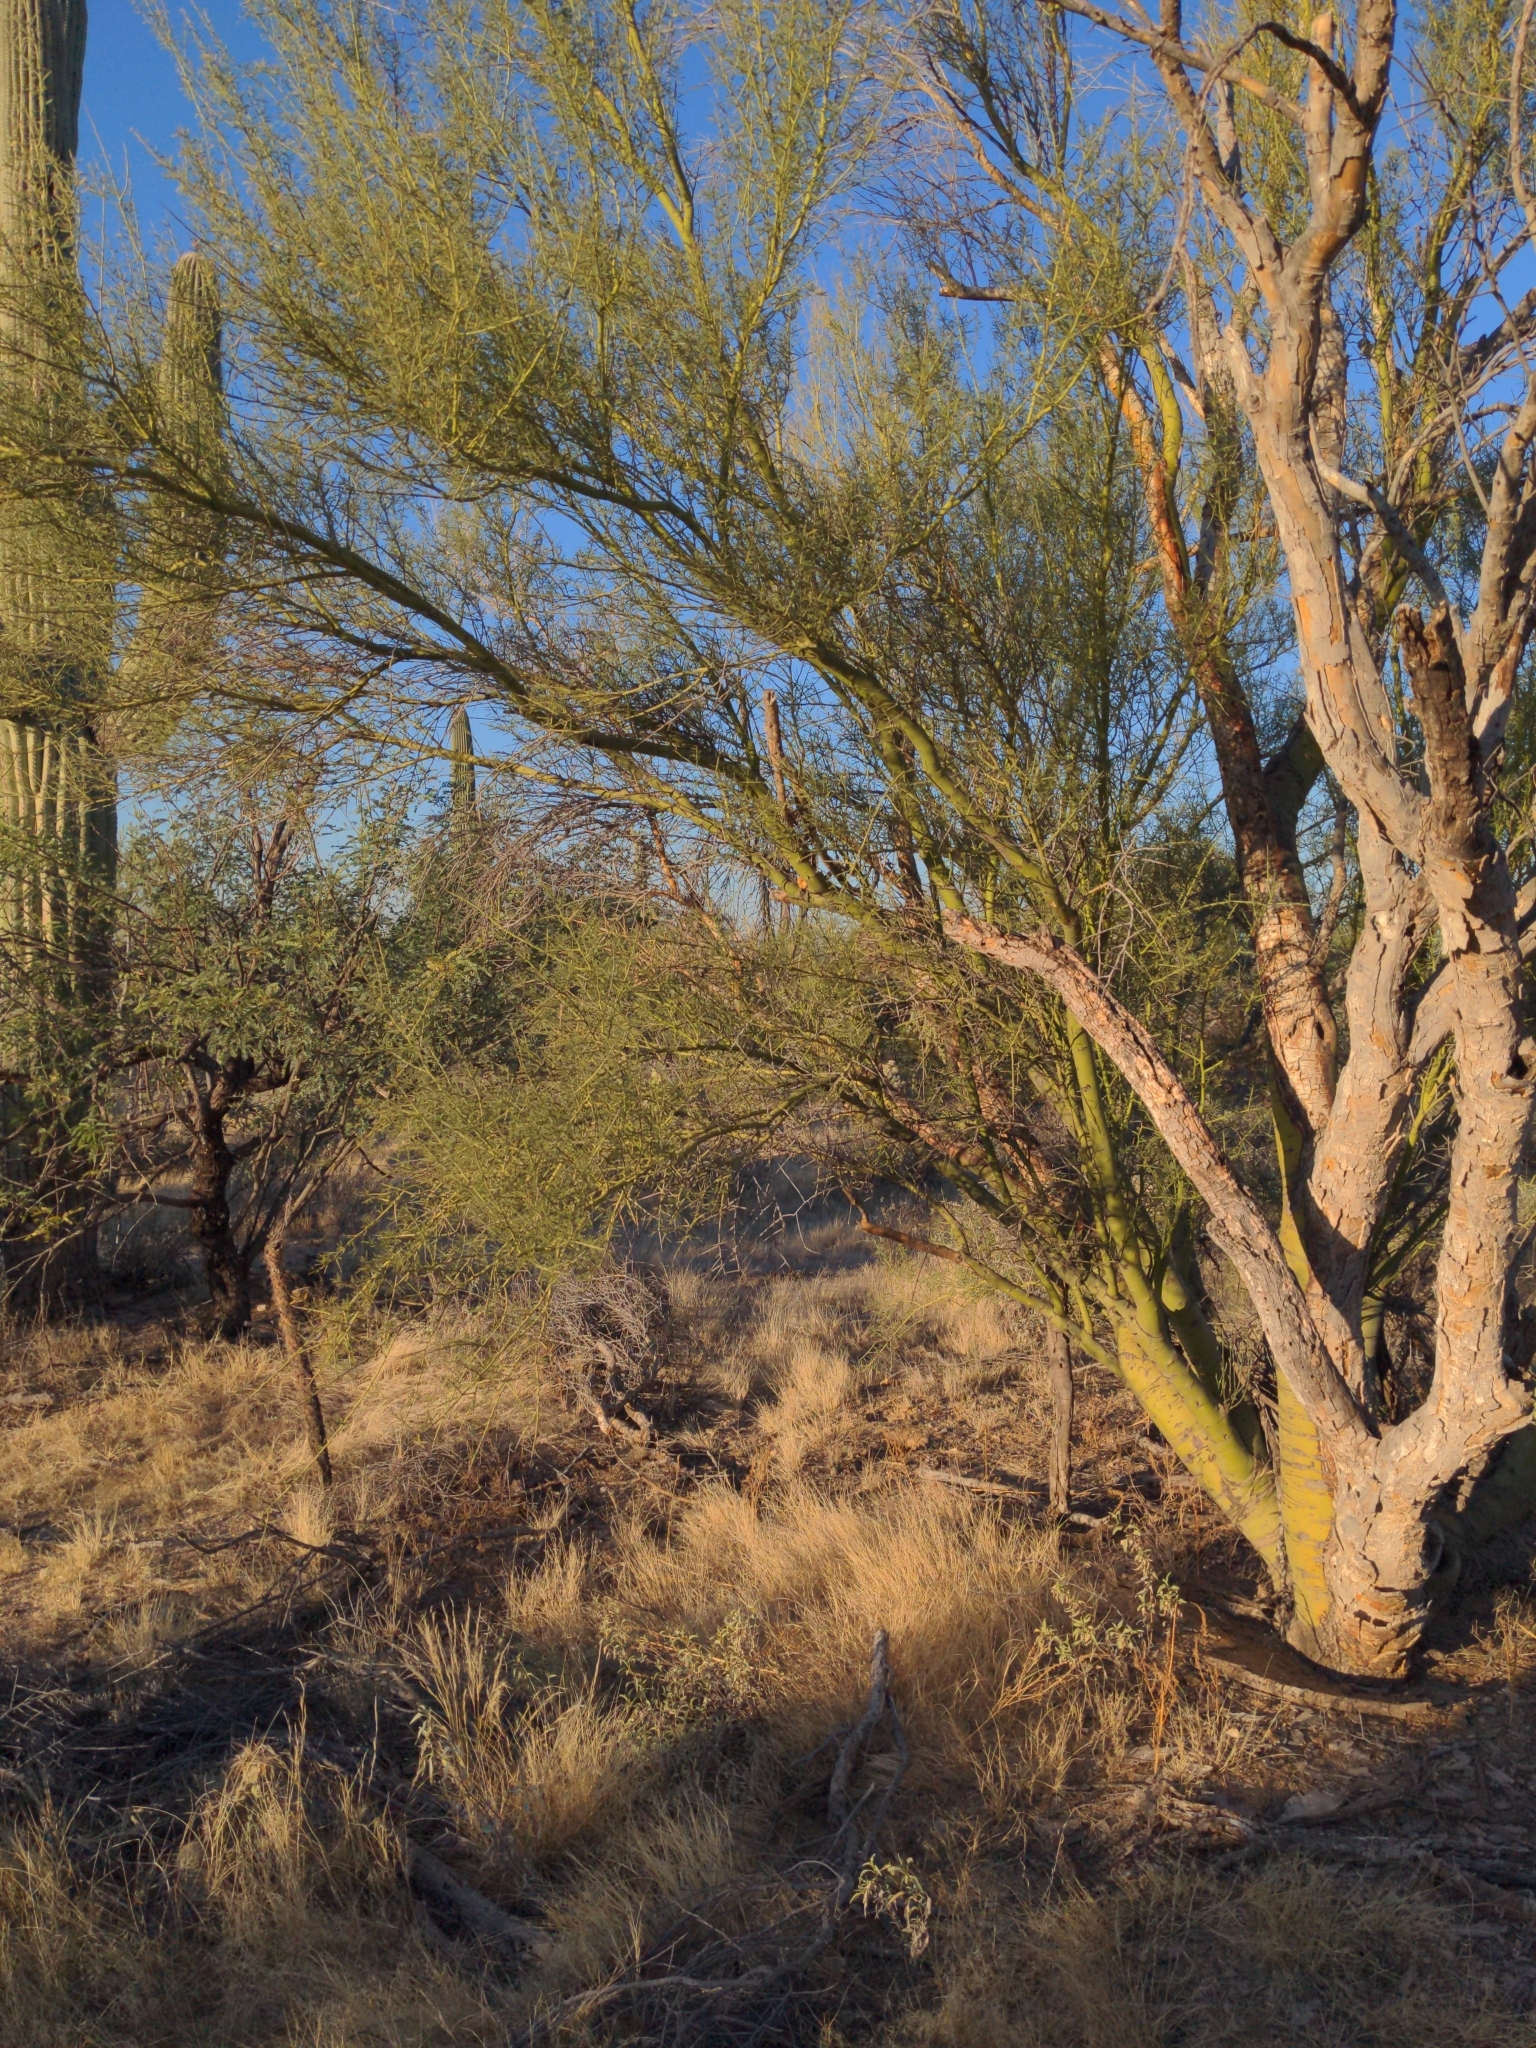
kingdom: Plantae
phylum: Tracheophyta
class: Magnoliopsida
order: Fabales
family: Fabaceae
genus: Parkinsonia
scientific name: Parkinsonia microphylla
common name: Yellow paloverde
